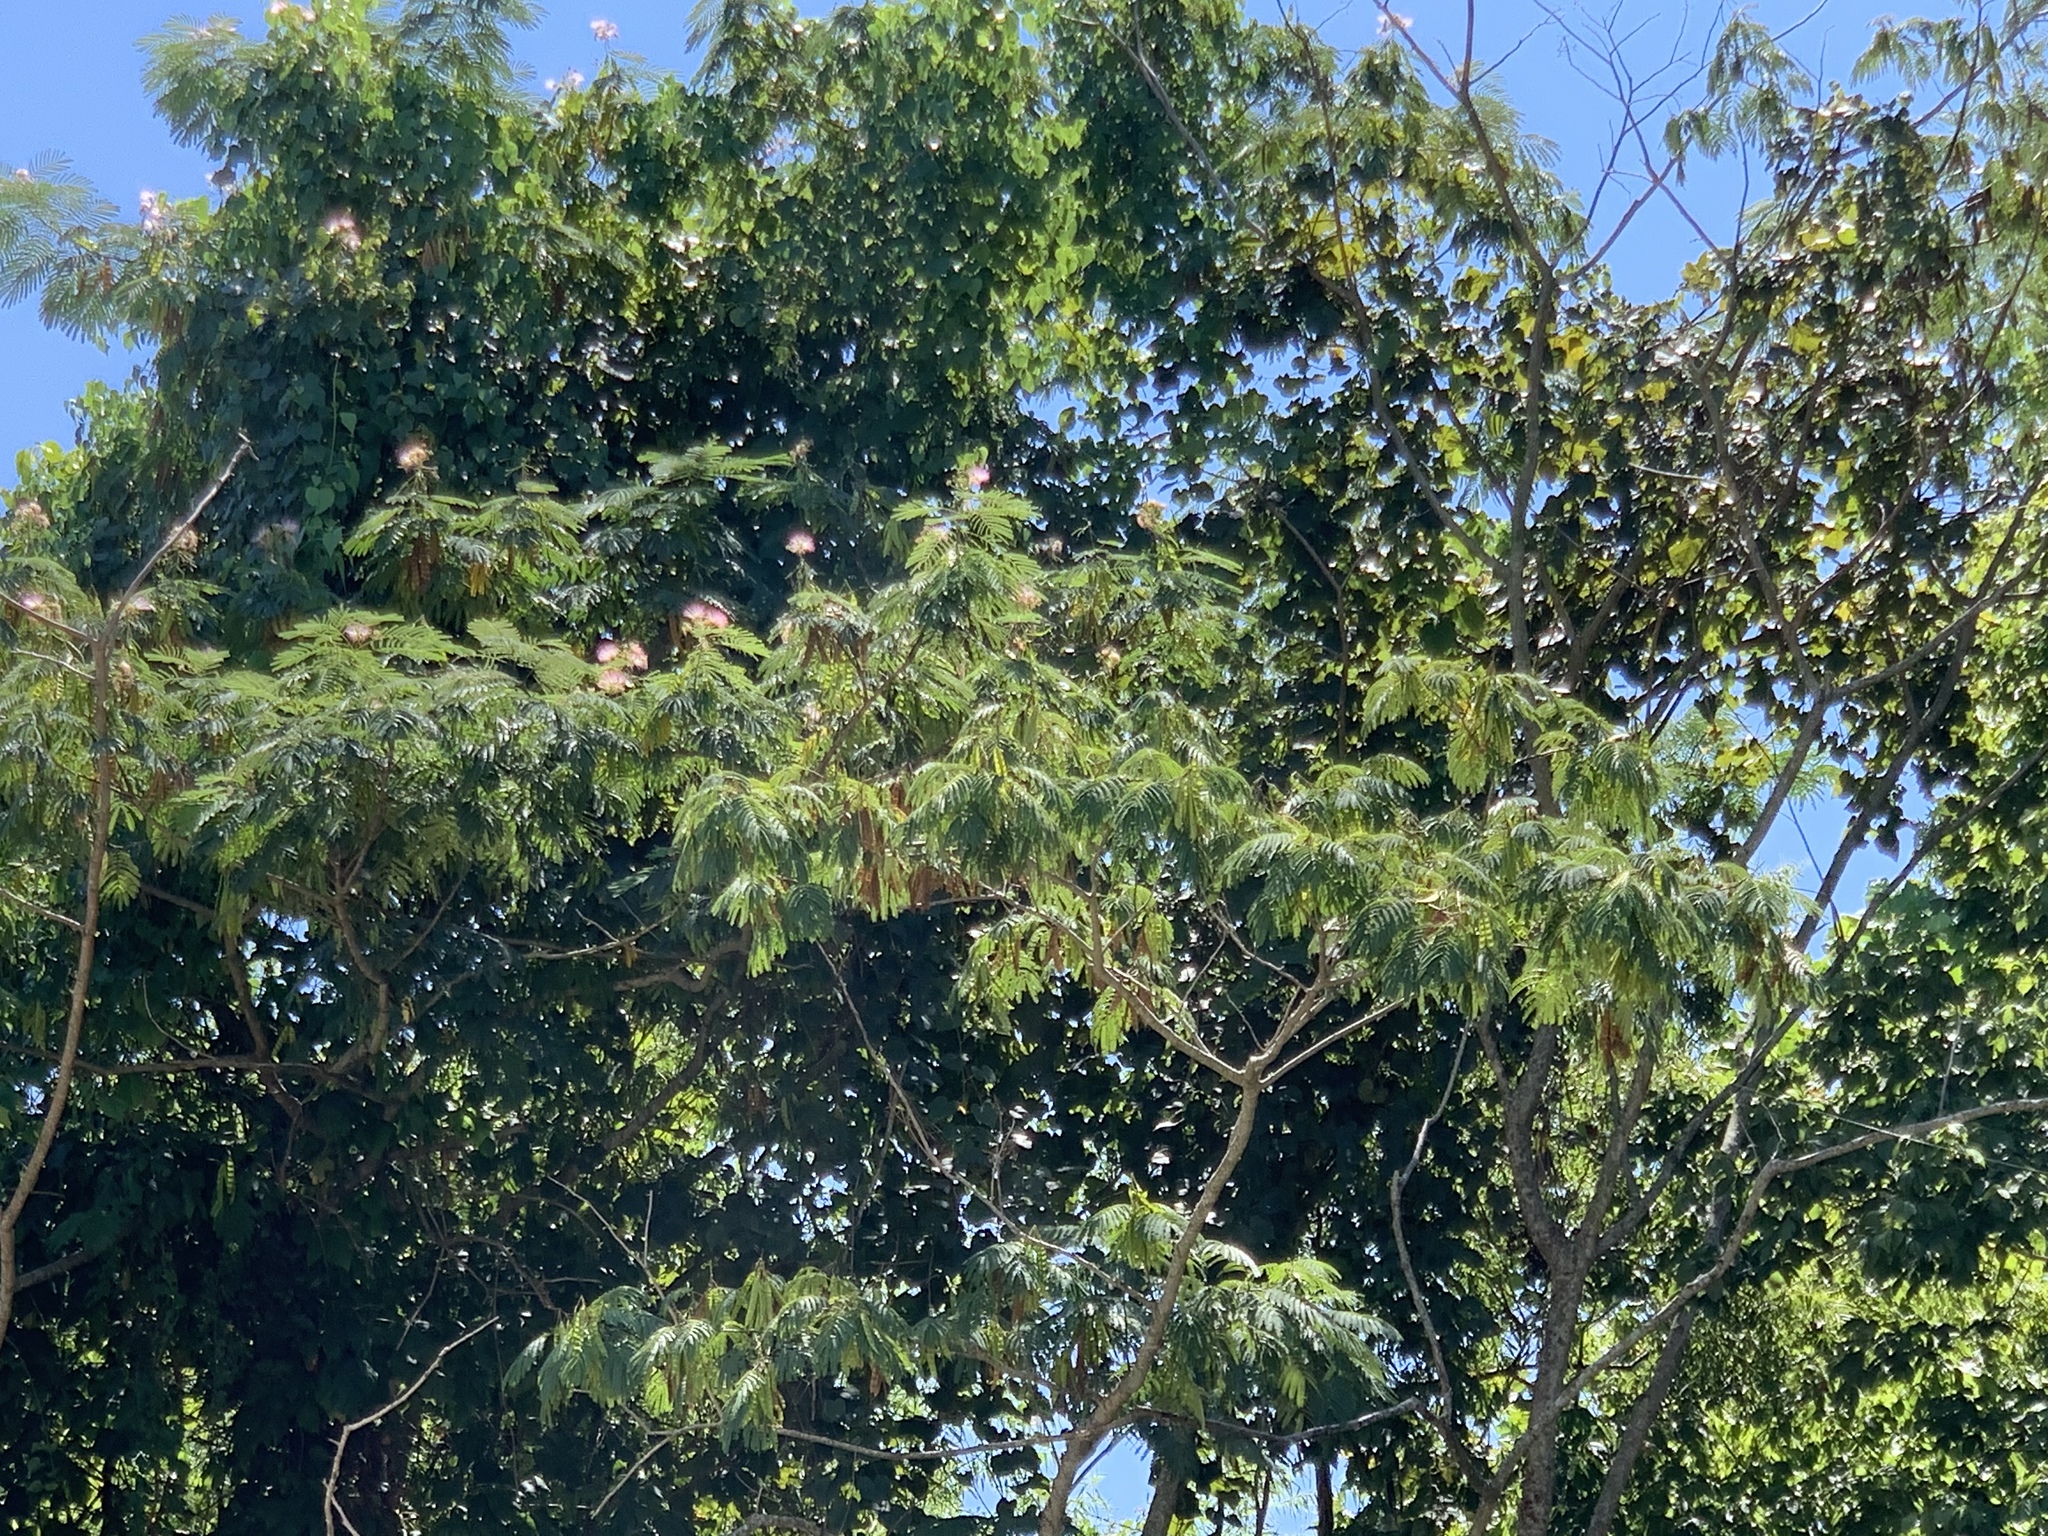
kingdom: Plantae
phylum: Tracheophyta
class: Magnoliopsida
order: Fabales
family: Fabaceae
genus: Albizia
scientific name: Albizia julibrissin
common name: Silktree
